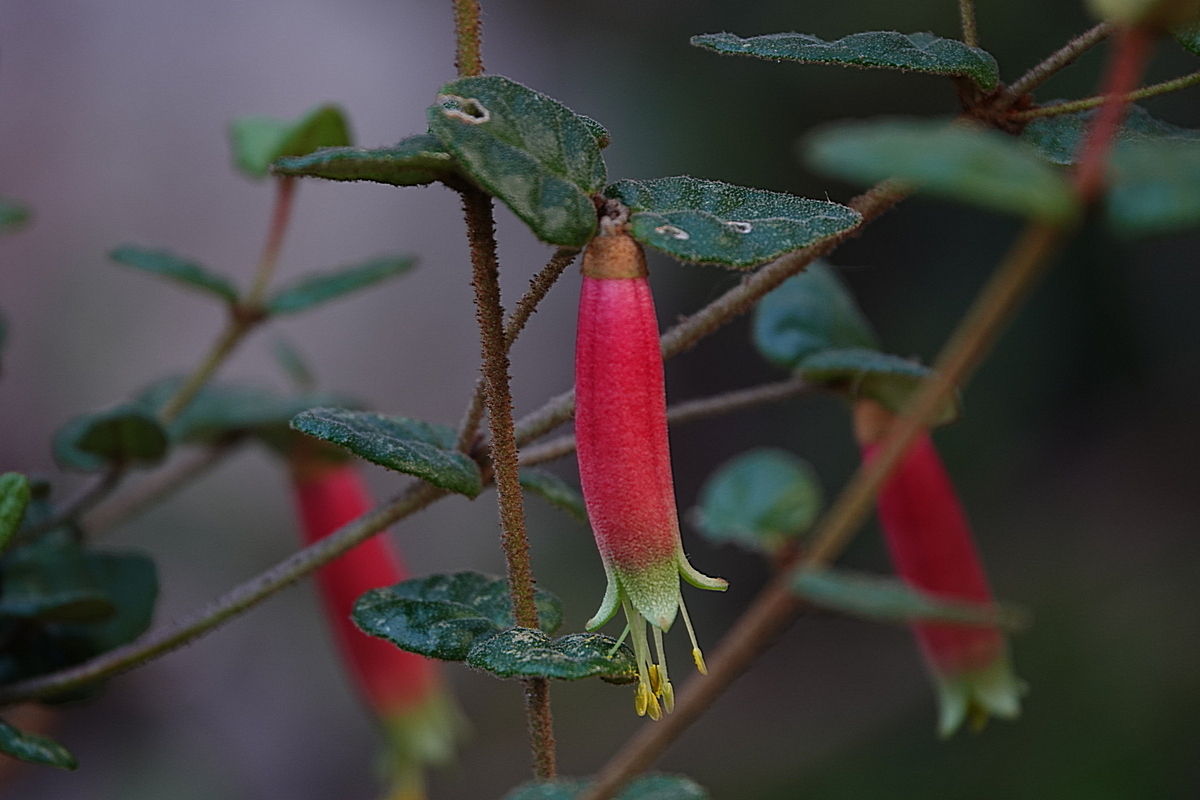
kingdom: Plantae
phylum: Tracheophyta
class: Magnoliopsida
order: Sapindales
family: Rutaceae
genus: Correa
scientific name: Correa reflexa
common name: Common correa
